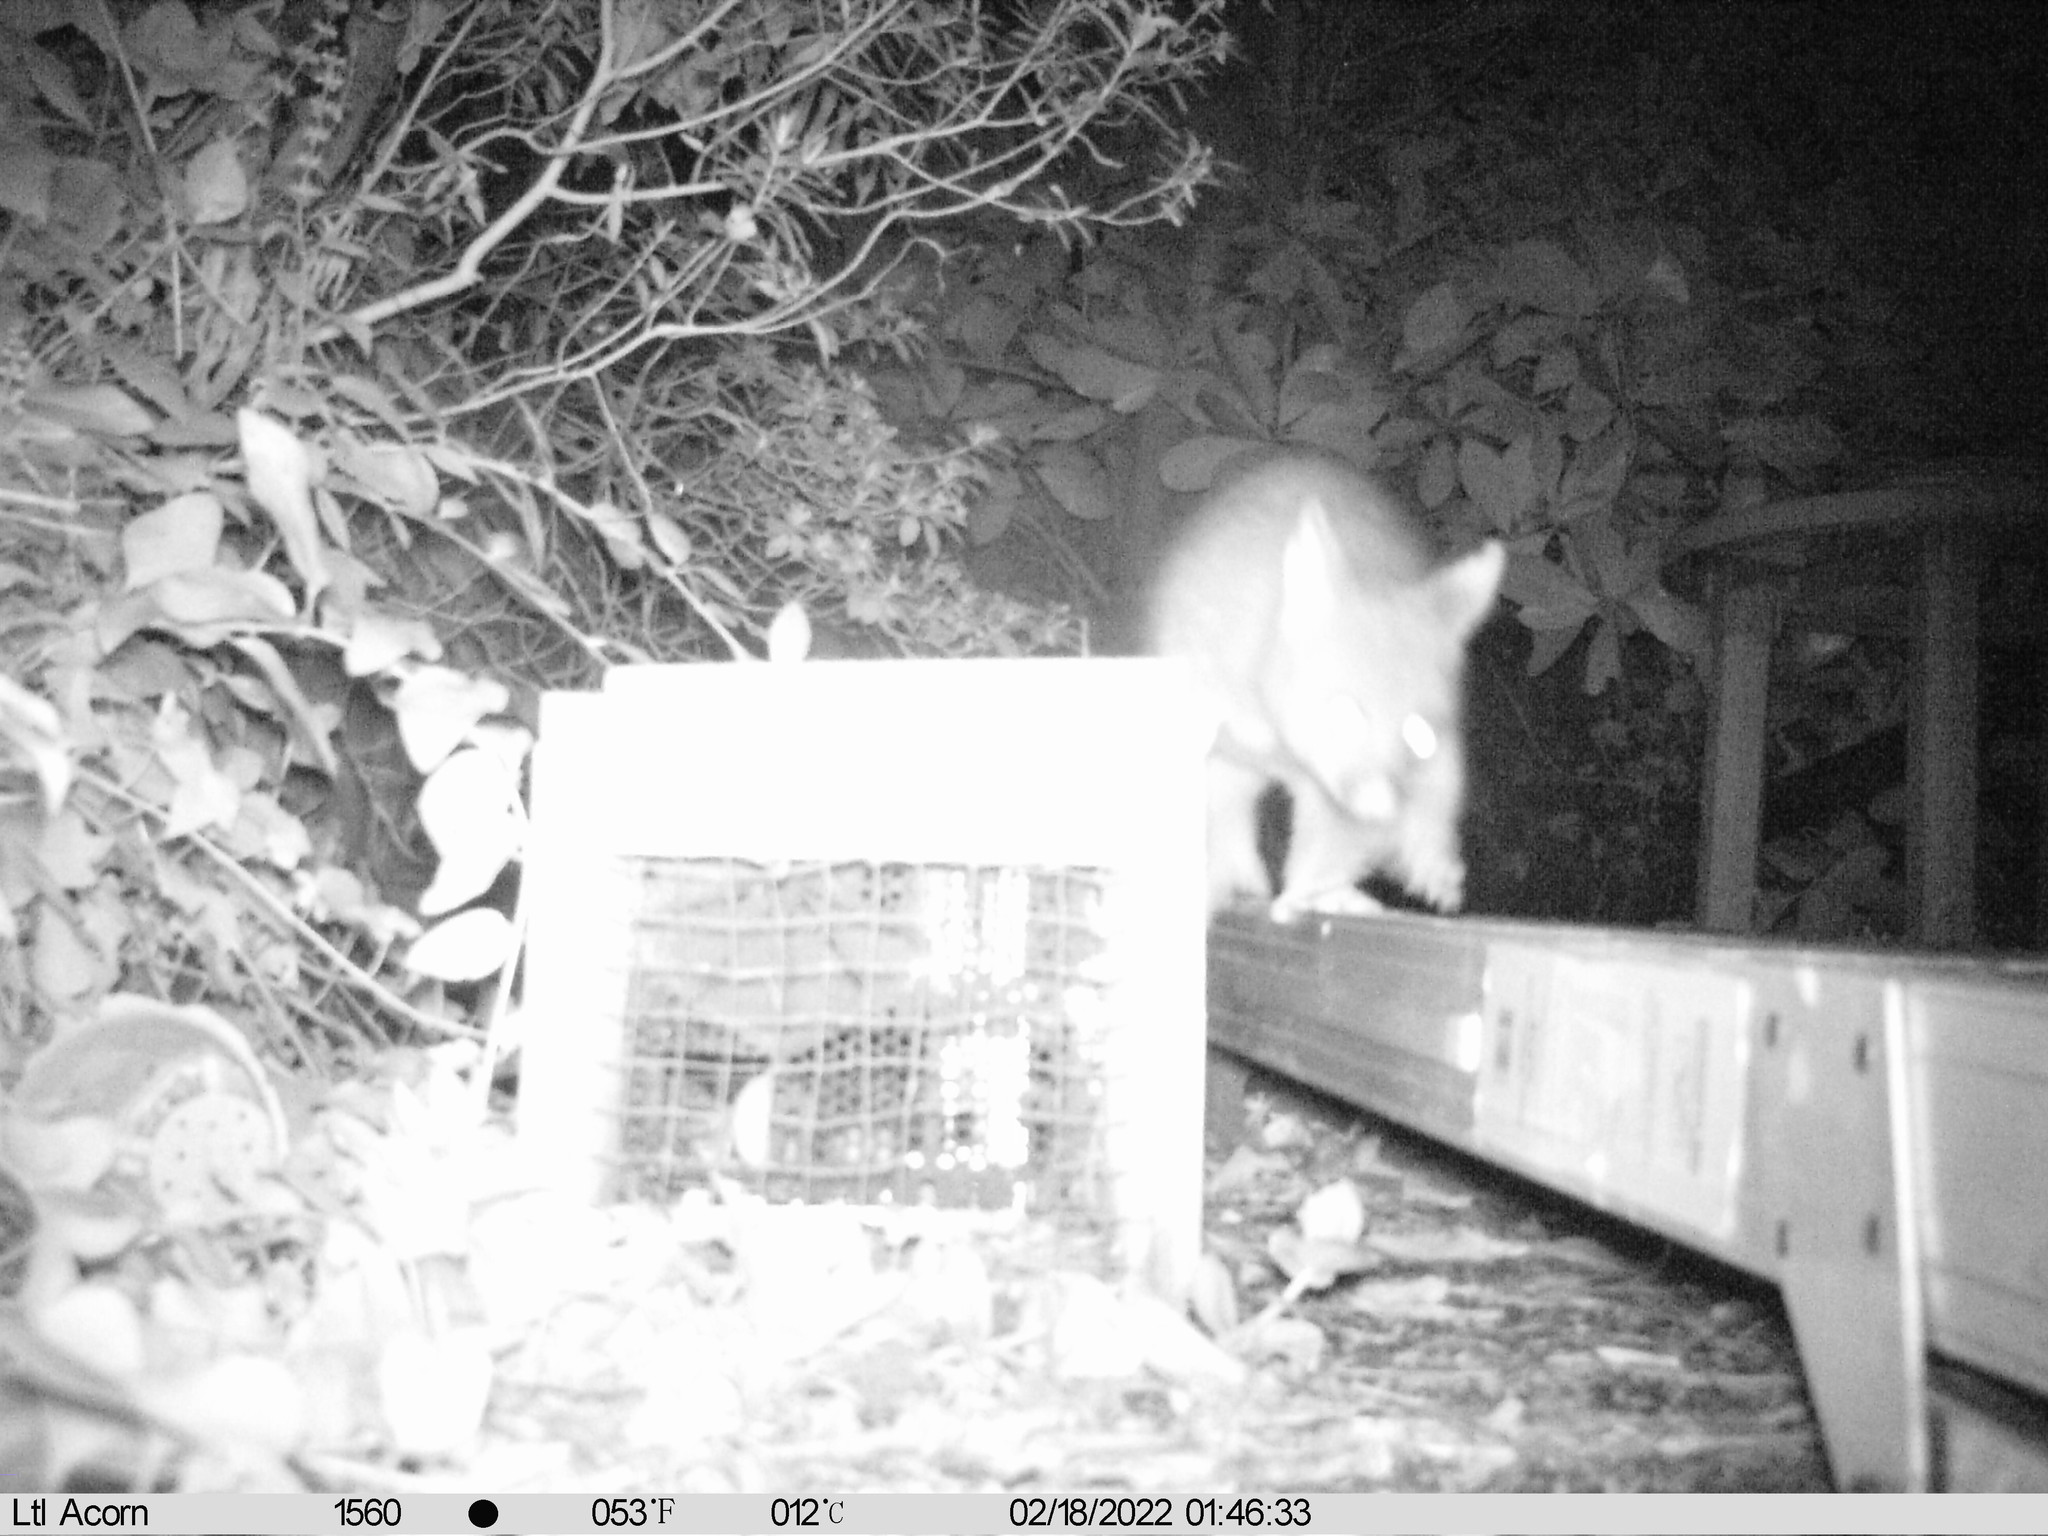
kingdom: Animalia
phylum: Chordata
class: Mammalia
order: Diprotodontia
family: Phalangeridae
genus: Trichosurus
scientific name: Trichosurus vulpecula
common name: Common brushtail
